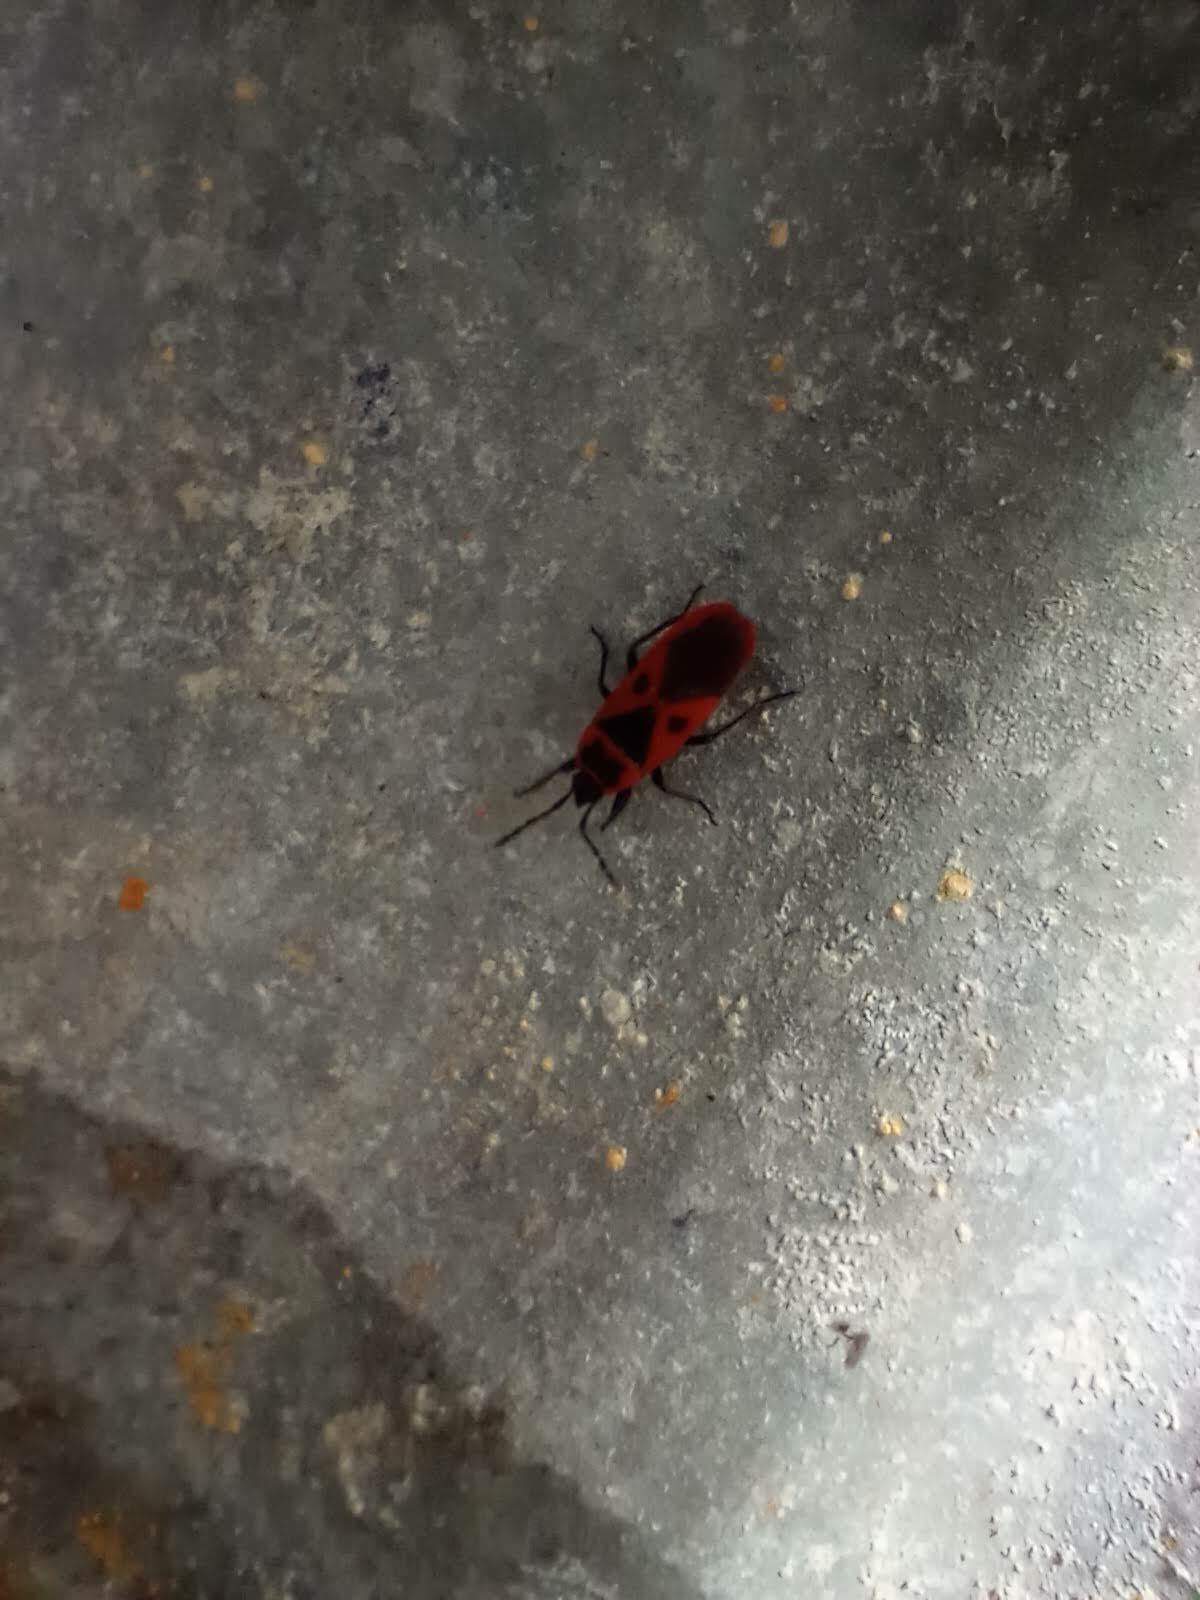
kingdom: Animalia
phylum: Arthropoda
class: Insecta
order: Hemiptera
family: Pyrrhocoridae
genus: Scantius
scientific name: Scantius aegyptius
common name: Red bug
